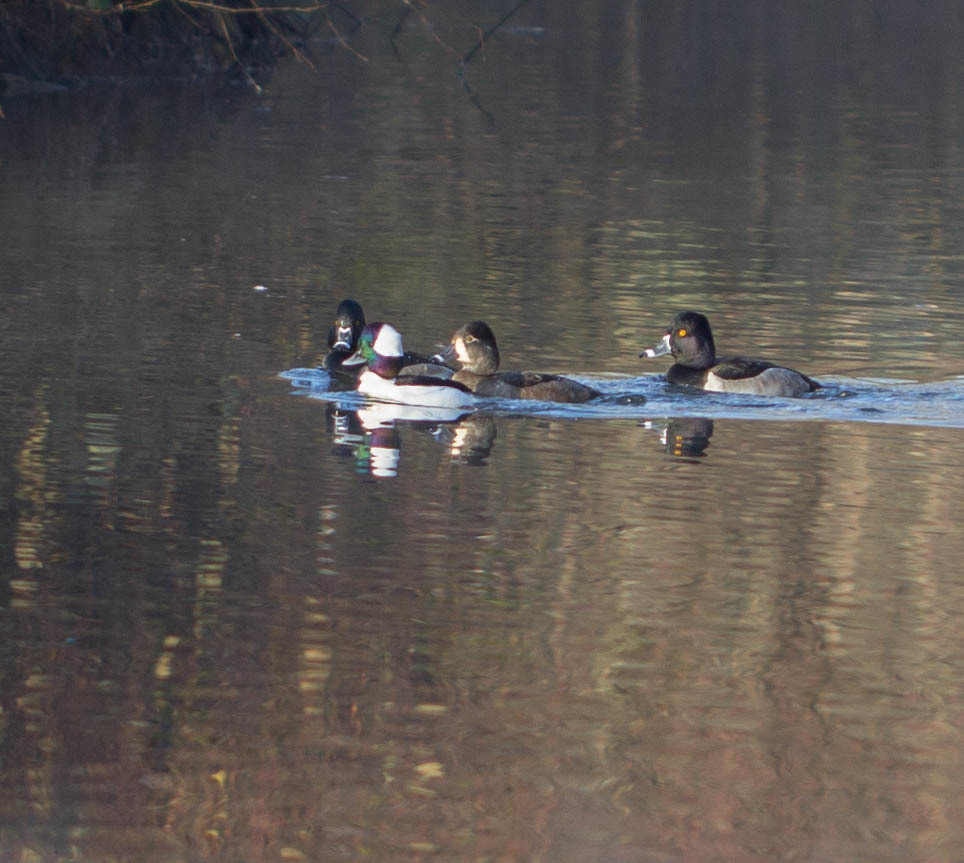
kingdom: Animalia
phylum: Chordata
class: Aves
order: Anseriformes
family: Anatidae
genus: Bucephala
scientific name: Bucephala albeola
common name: Bufflehead
